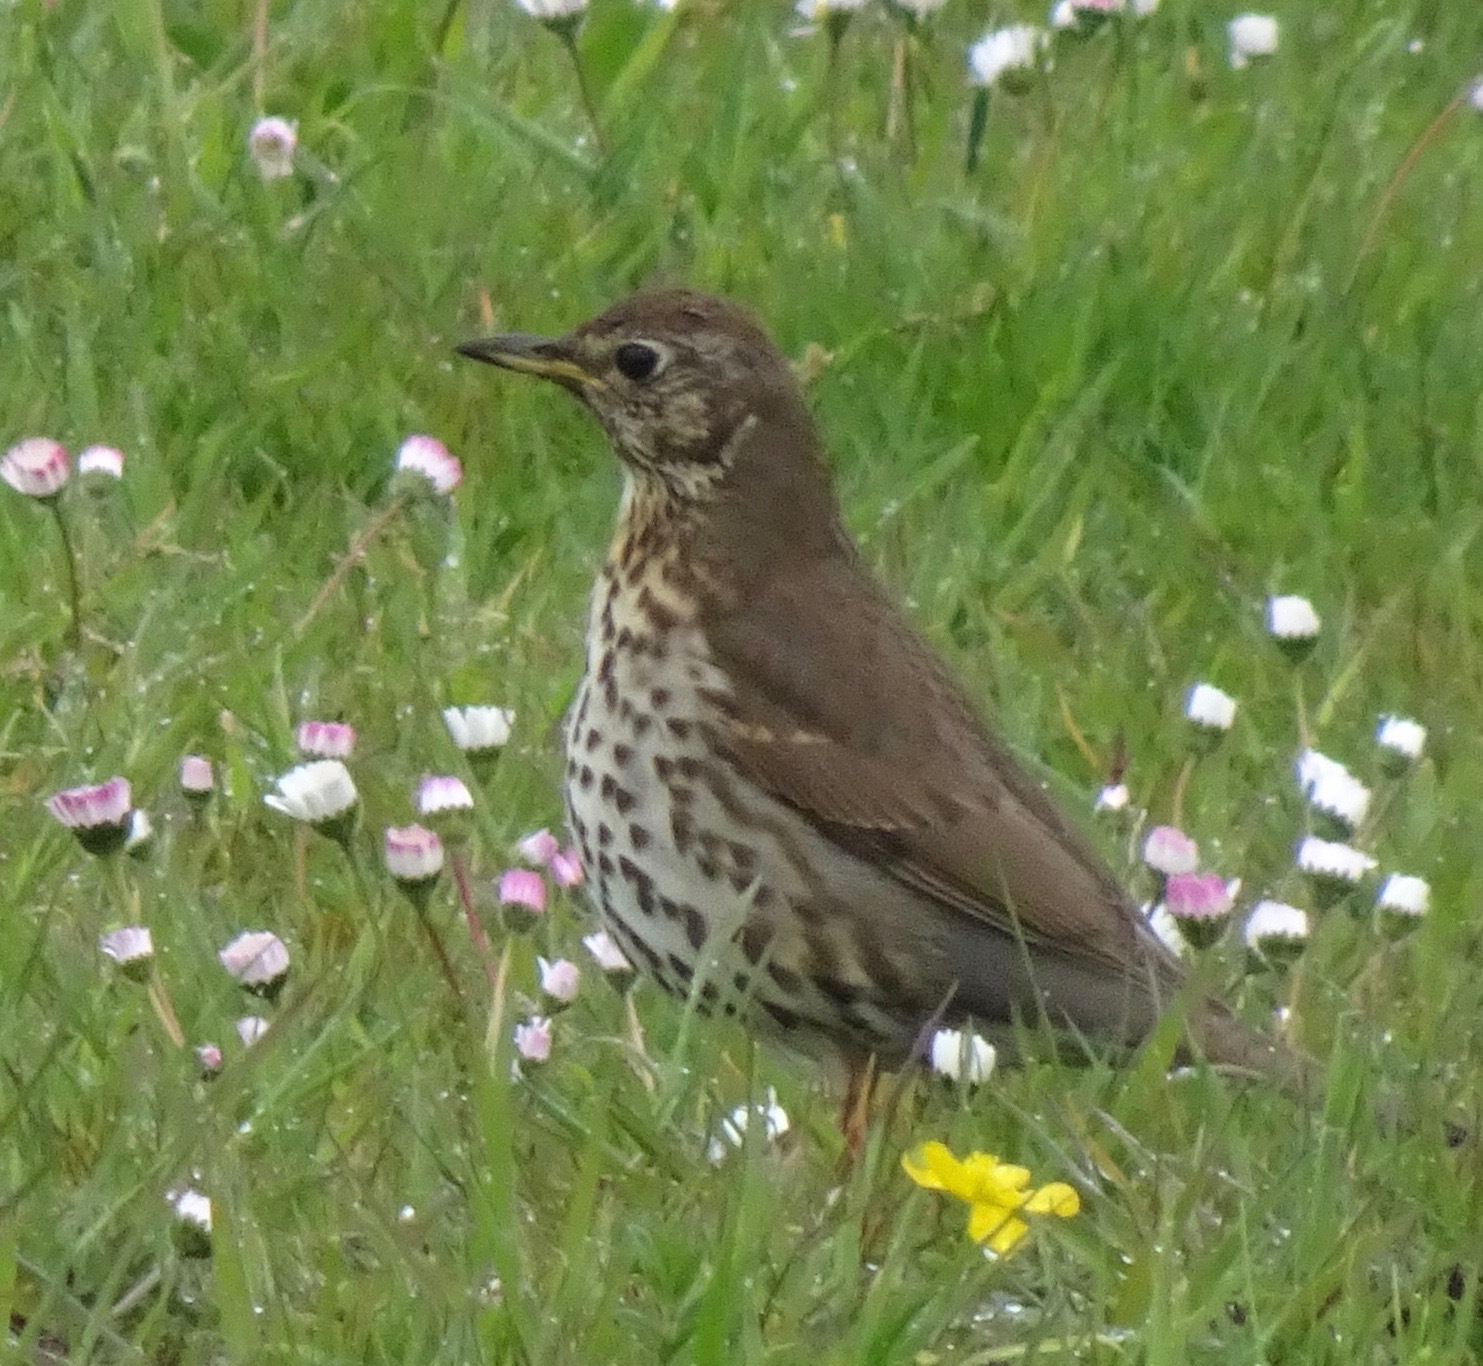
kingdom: Animalia
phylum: Chordata
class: Aves
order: Passeriformes
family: Turdidae
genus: Turdus
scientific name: Turdus philomelos
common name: Song thrush
